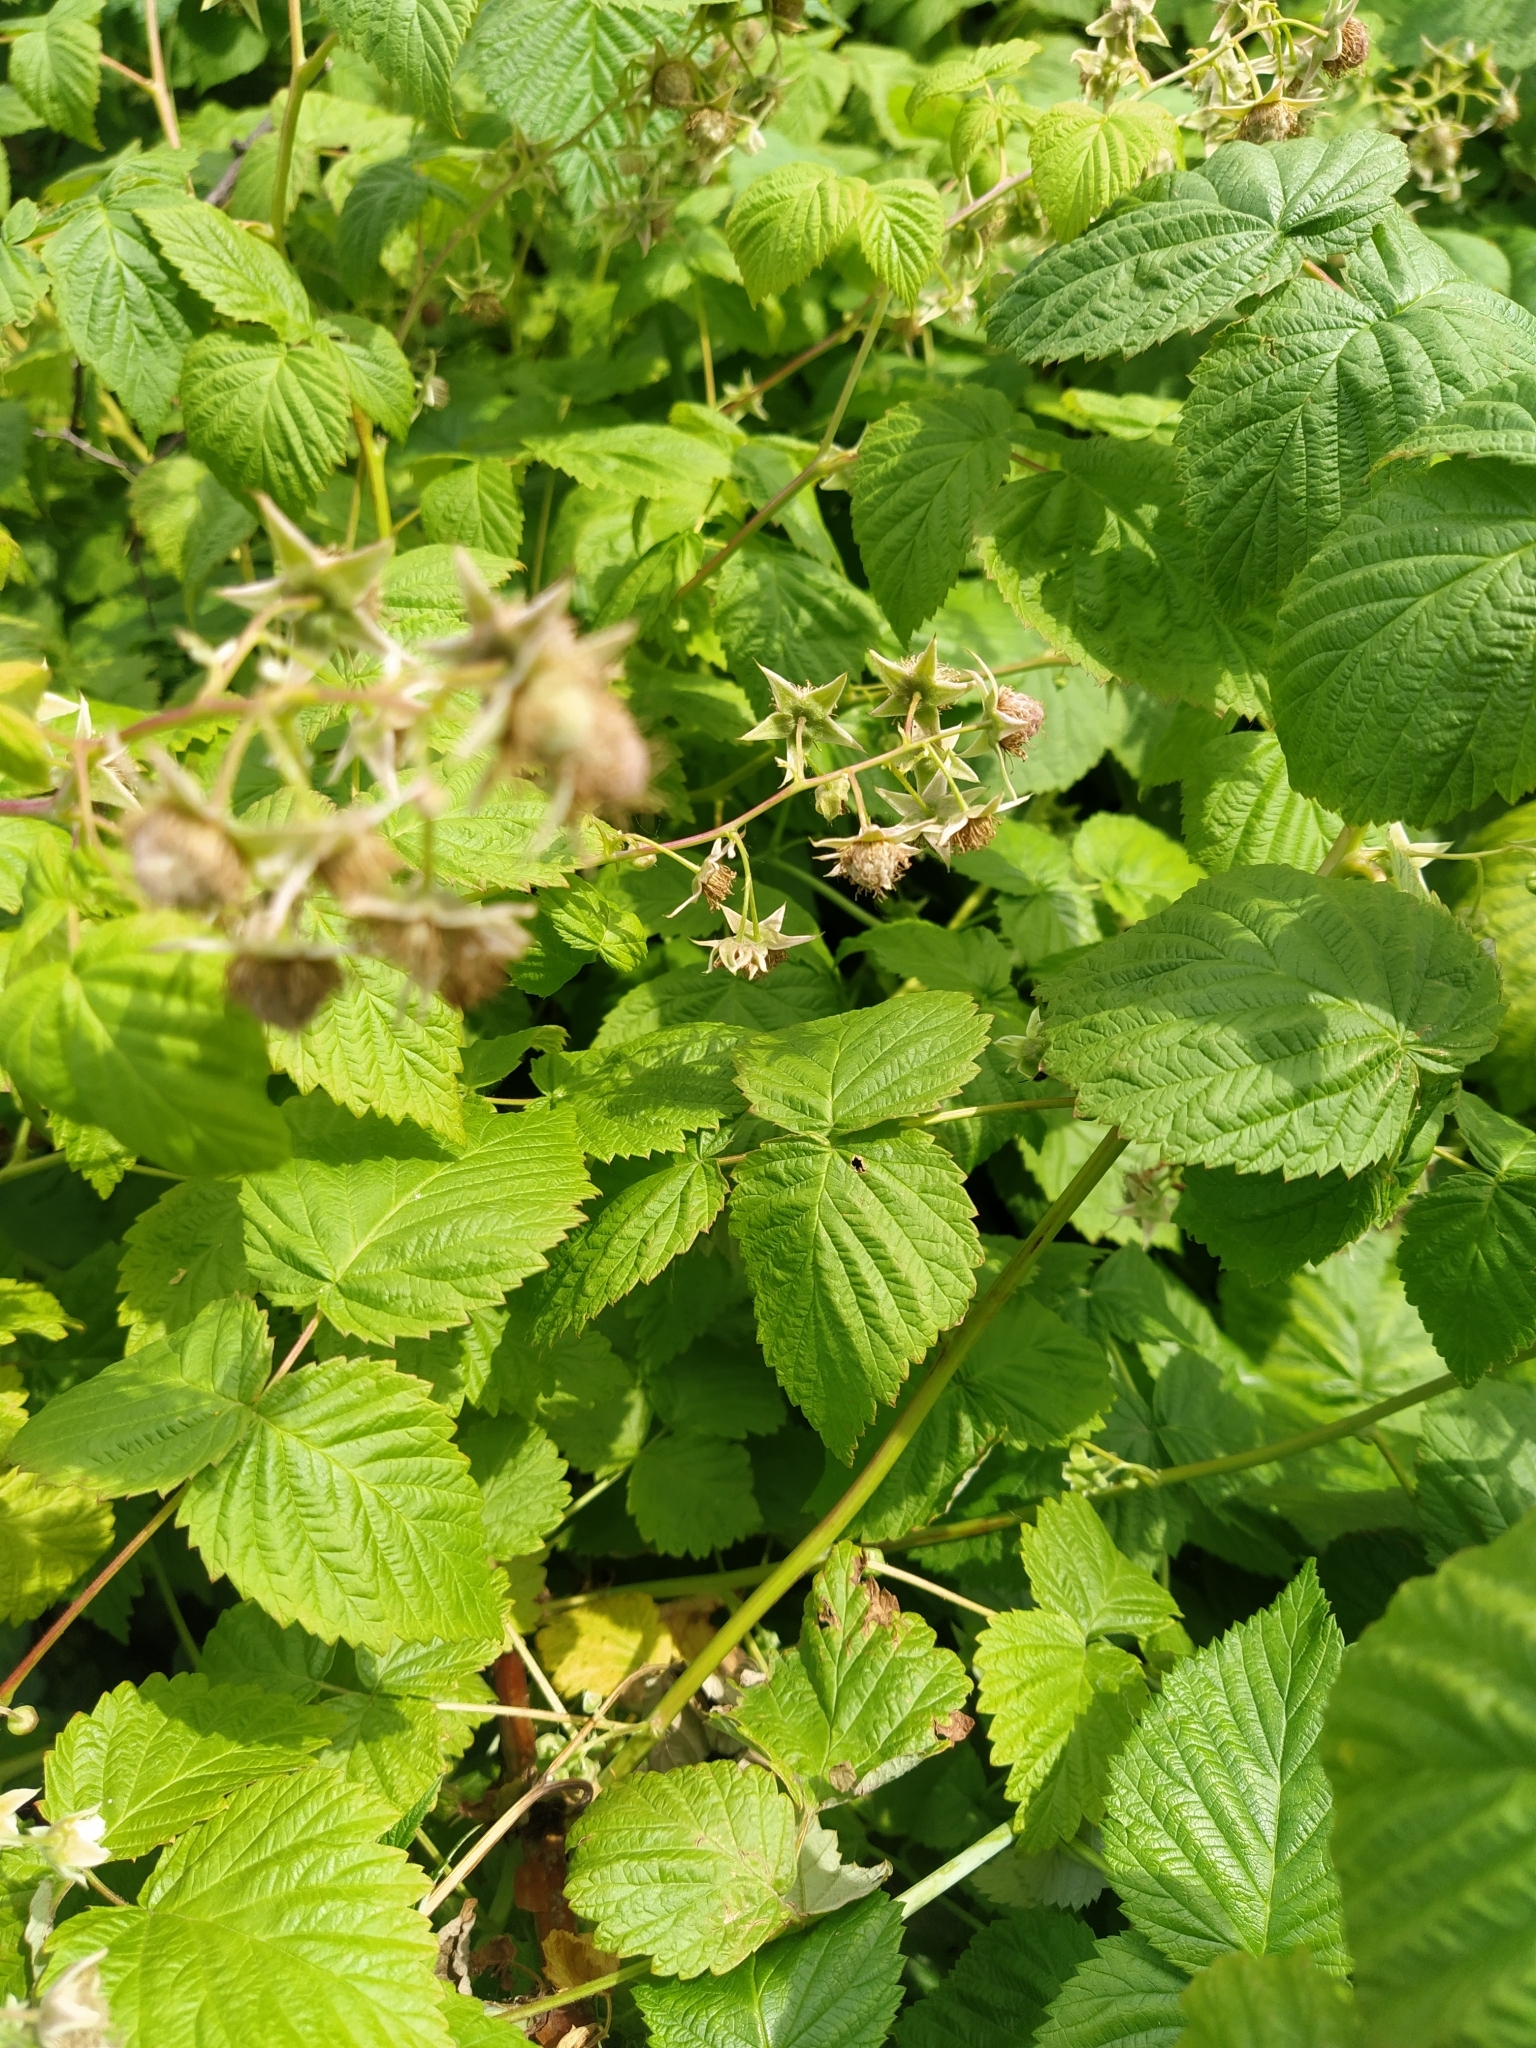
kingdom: Plantae
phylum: Tracheophyta
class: Magnoliopsida
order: Rosales
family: Rosaceae
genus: Rubus
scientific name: Rubus idaeus
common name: Raspberry
